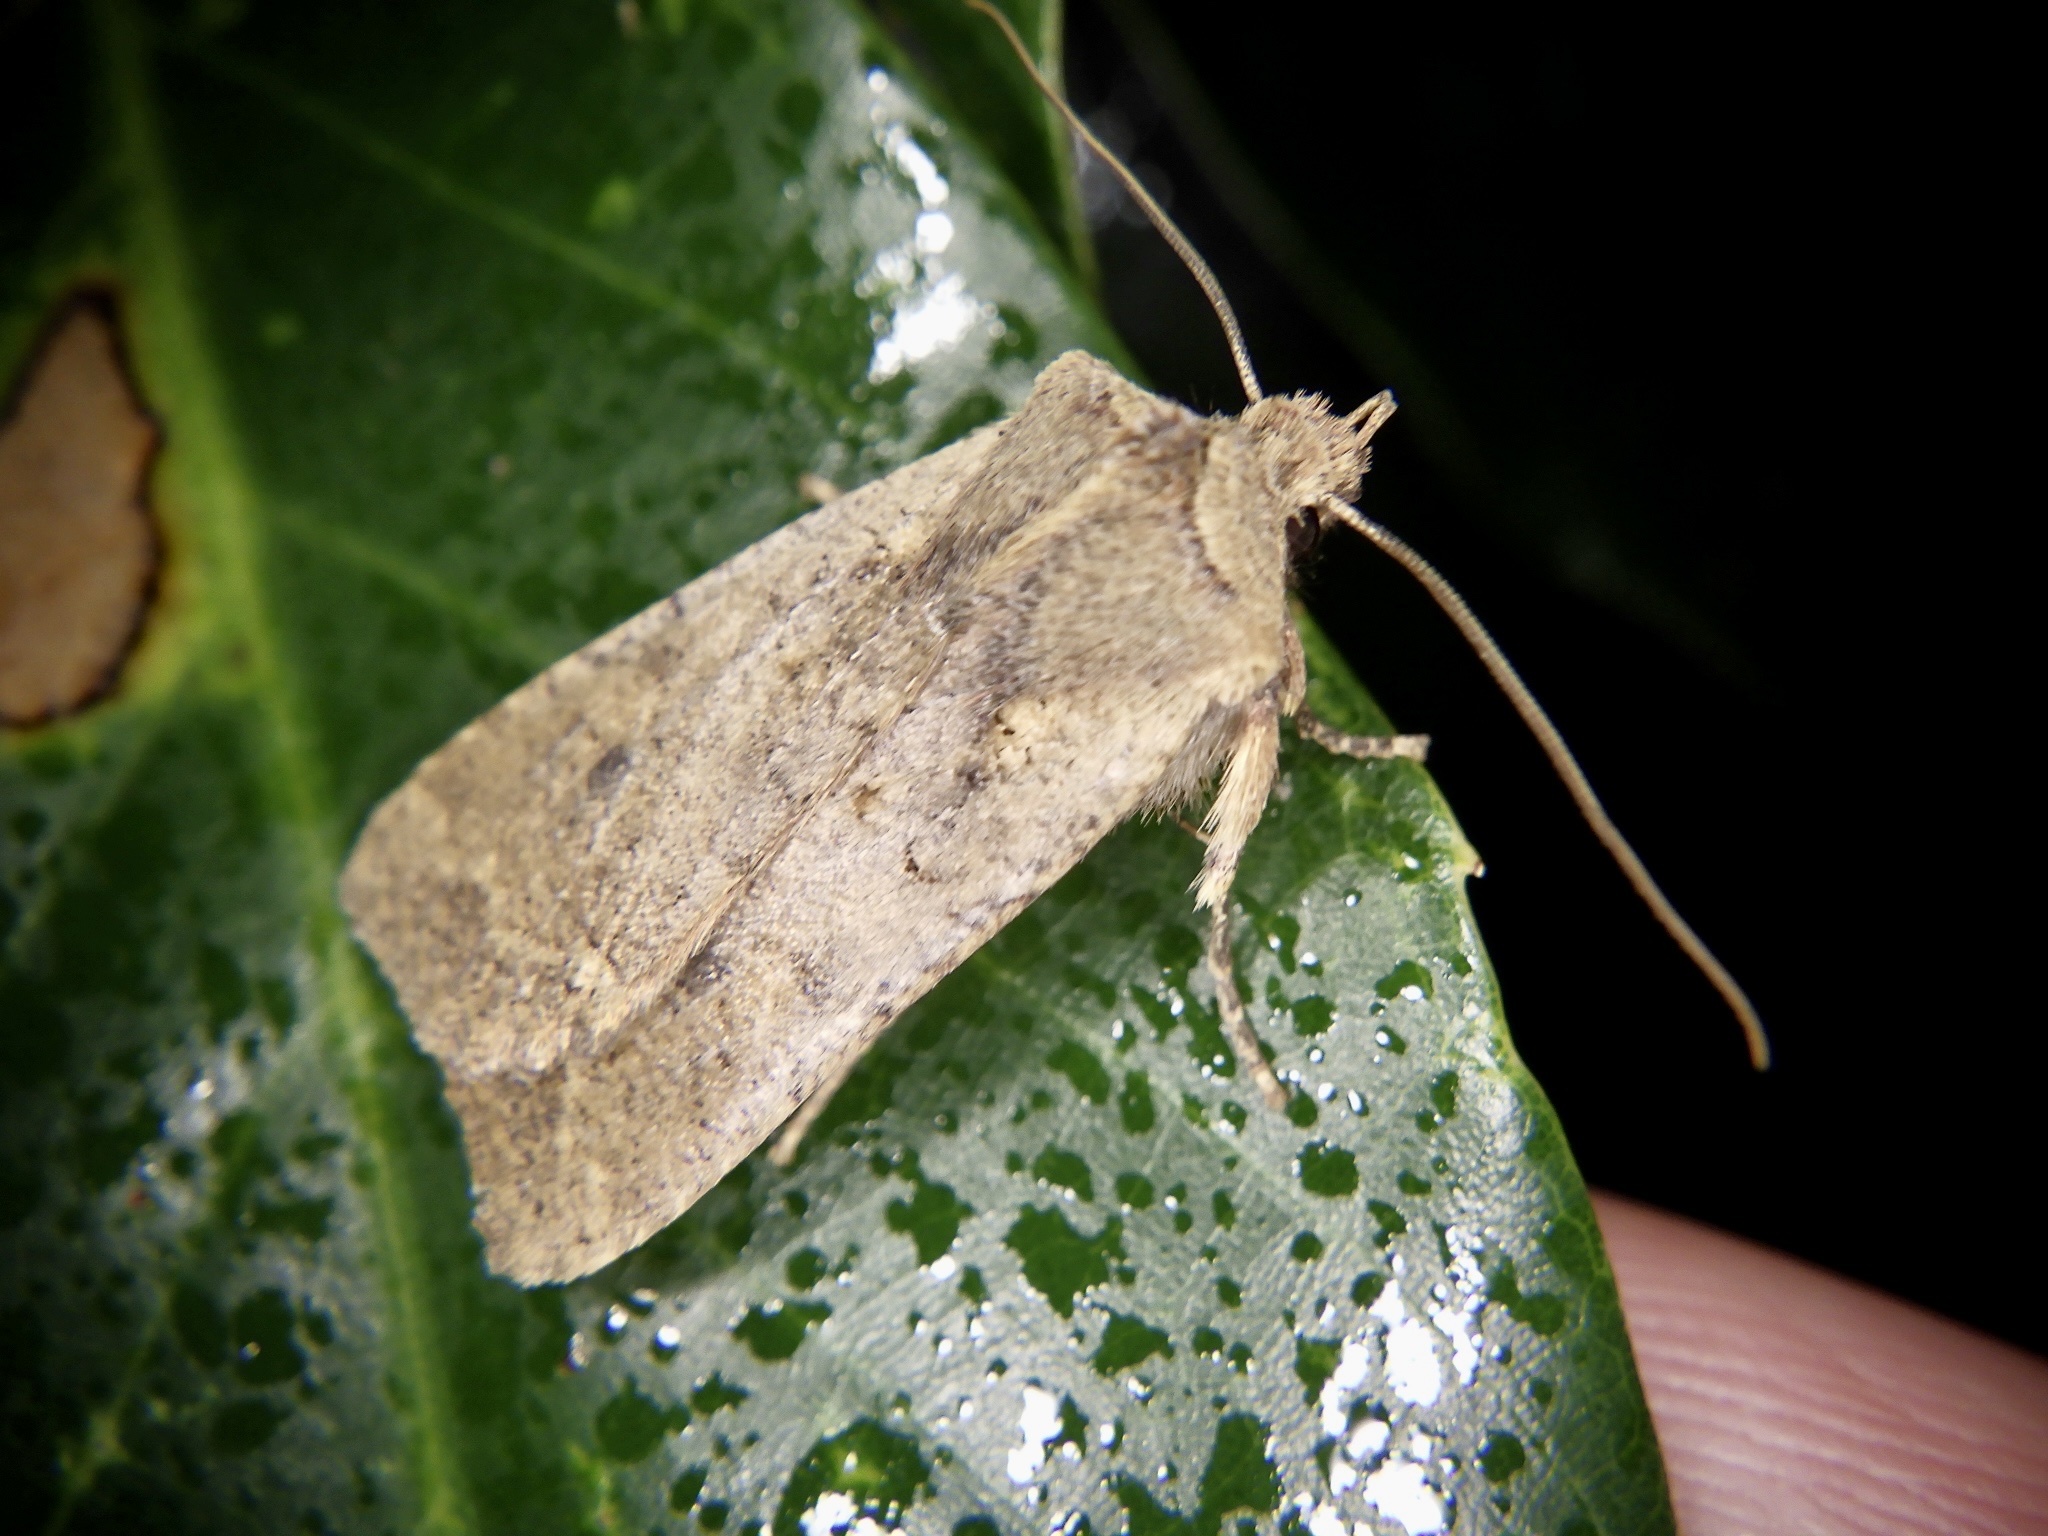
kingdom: Animalia
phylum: Arthropoda
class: Insecta
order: Lepidoptera
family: Noctuidae
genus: Rhynchaglaea
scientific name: Rhynchaglaea fuscipennis
